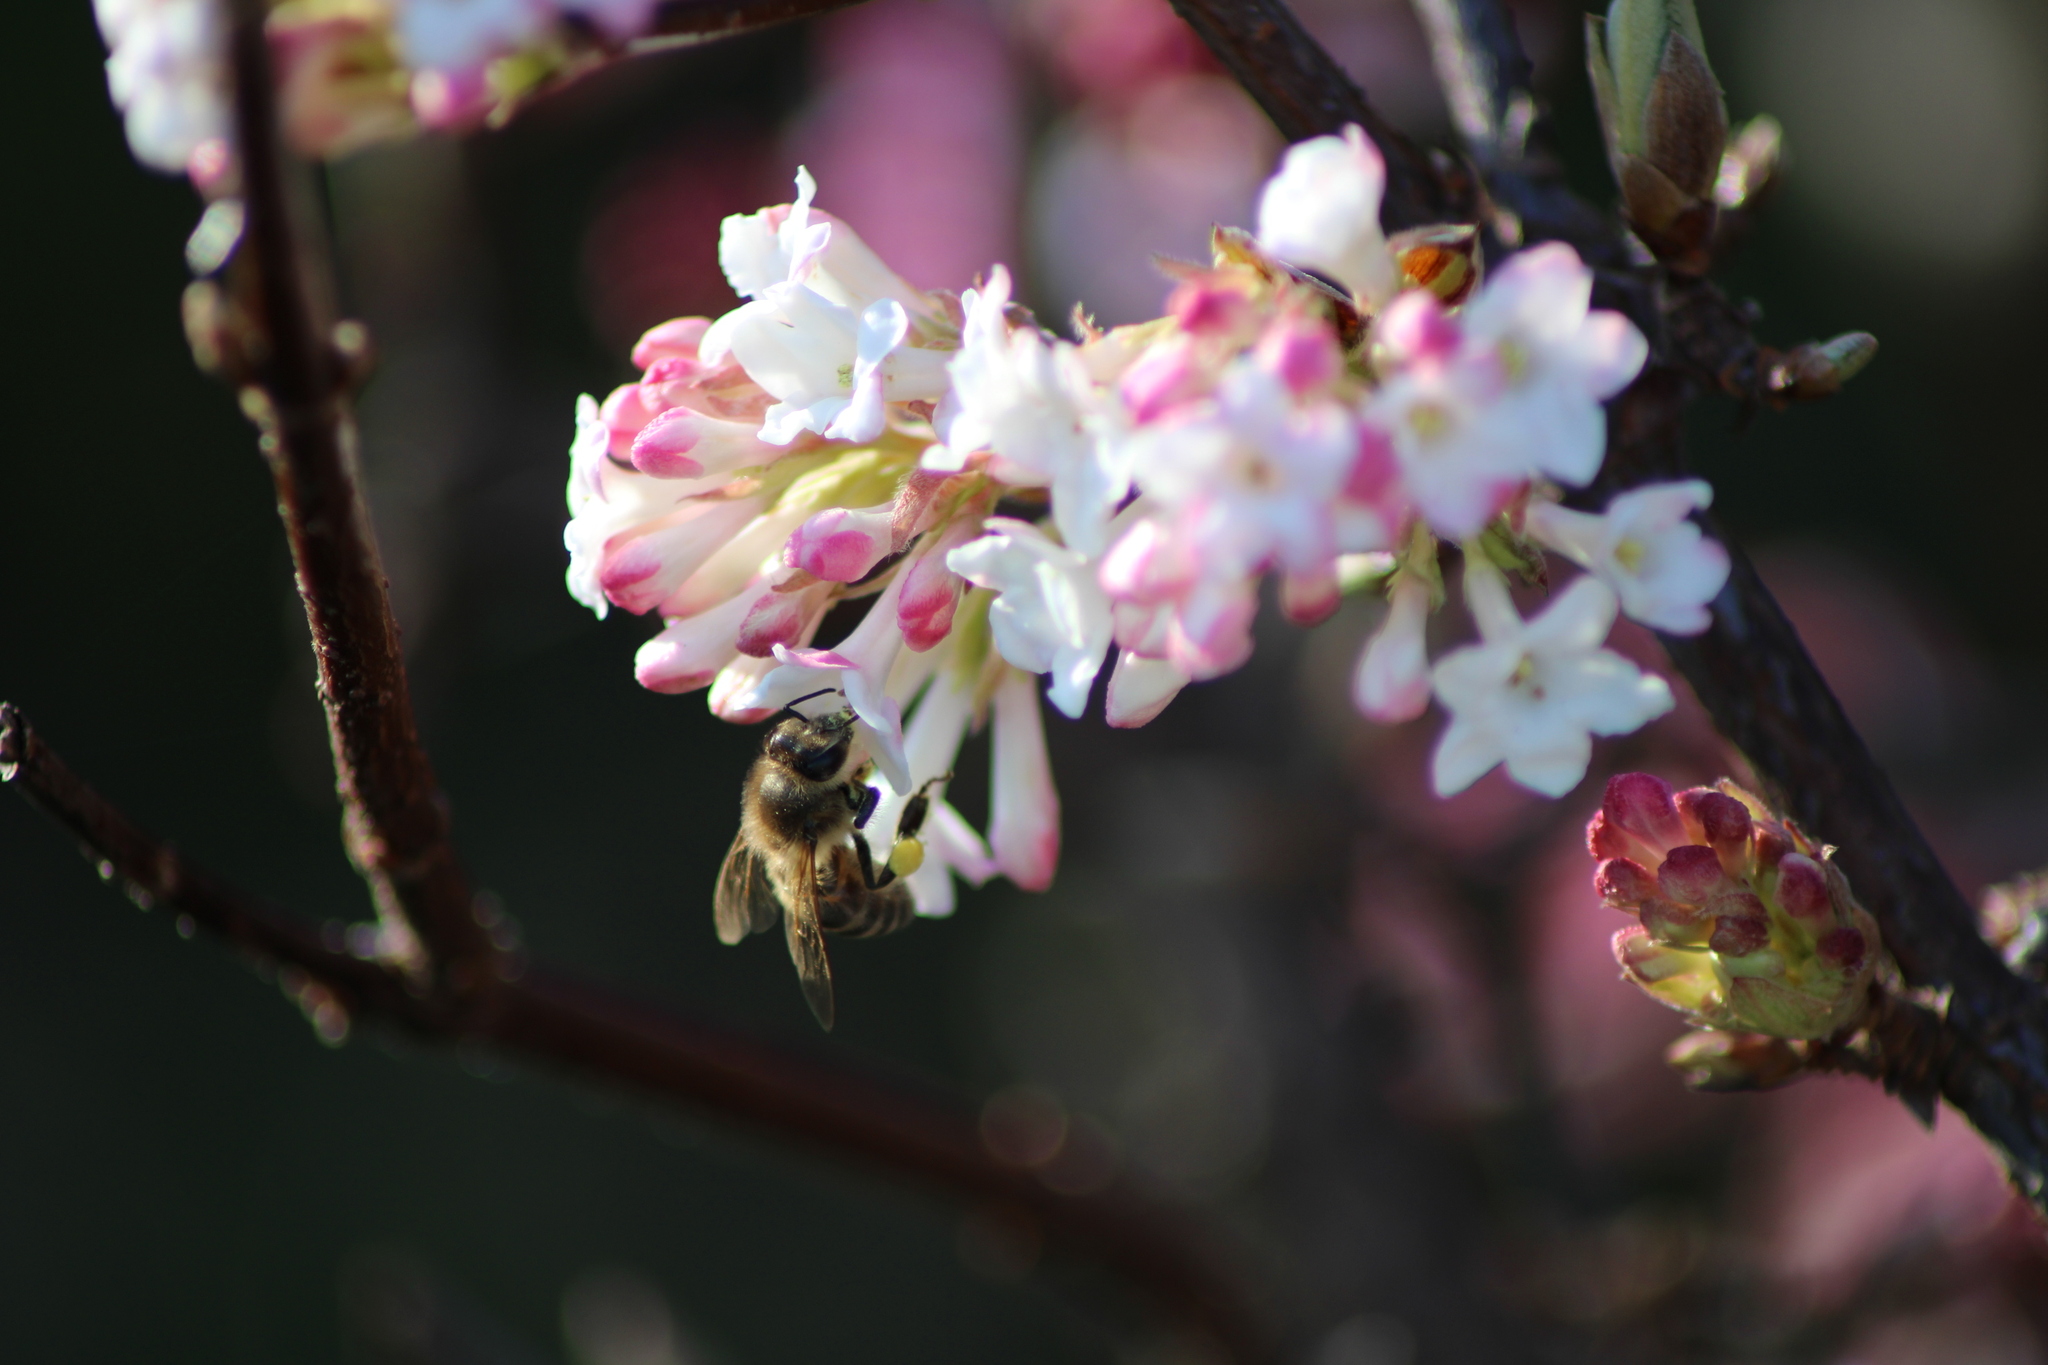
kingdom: Animalia
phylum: Arthropoda
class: Insecta
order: Hymenoptera
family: Apidae
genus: Apis
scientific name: Apis mellifera
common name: Honey bee
